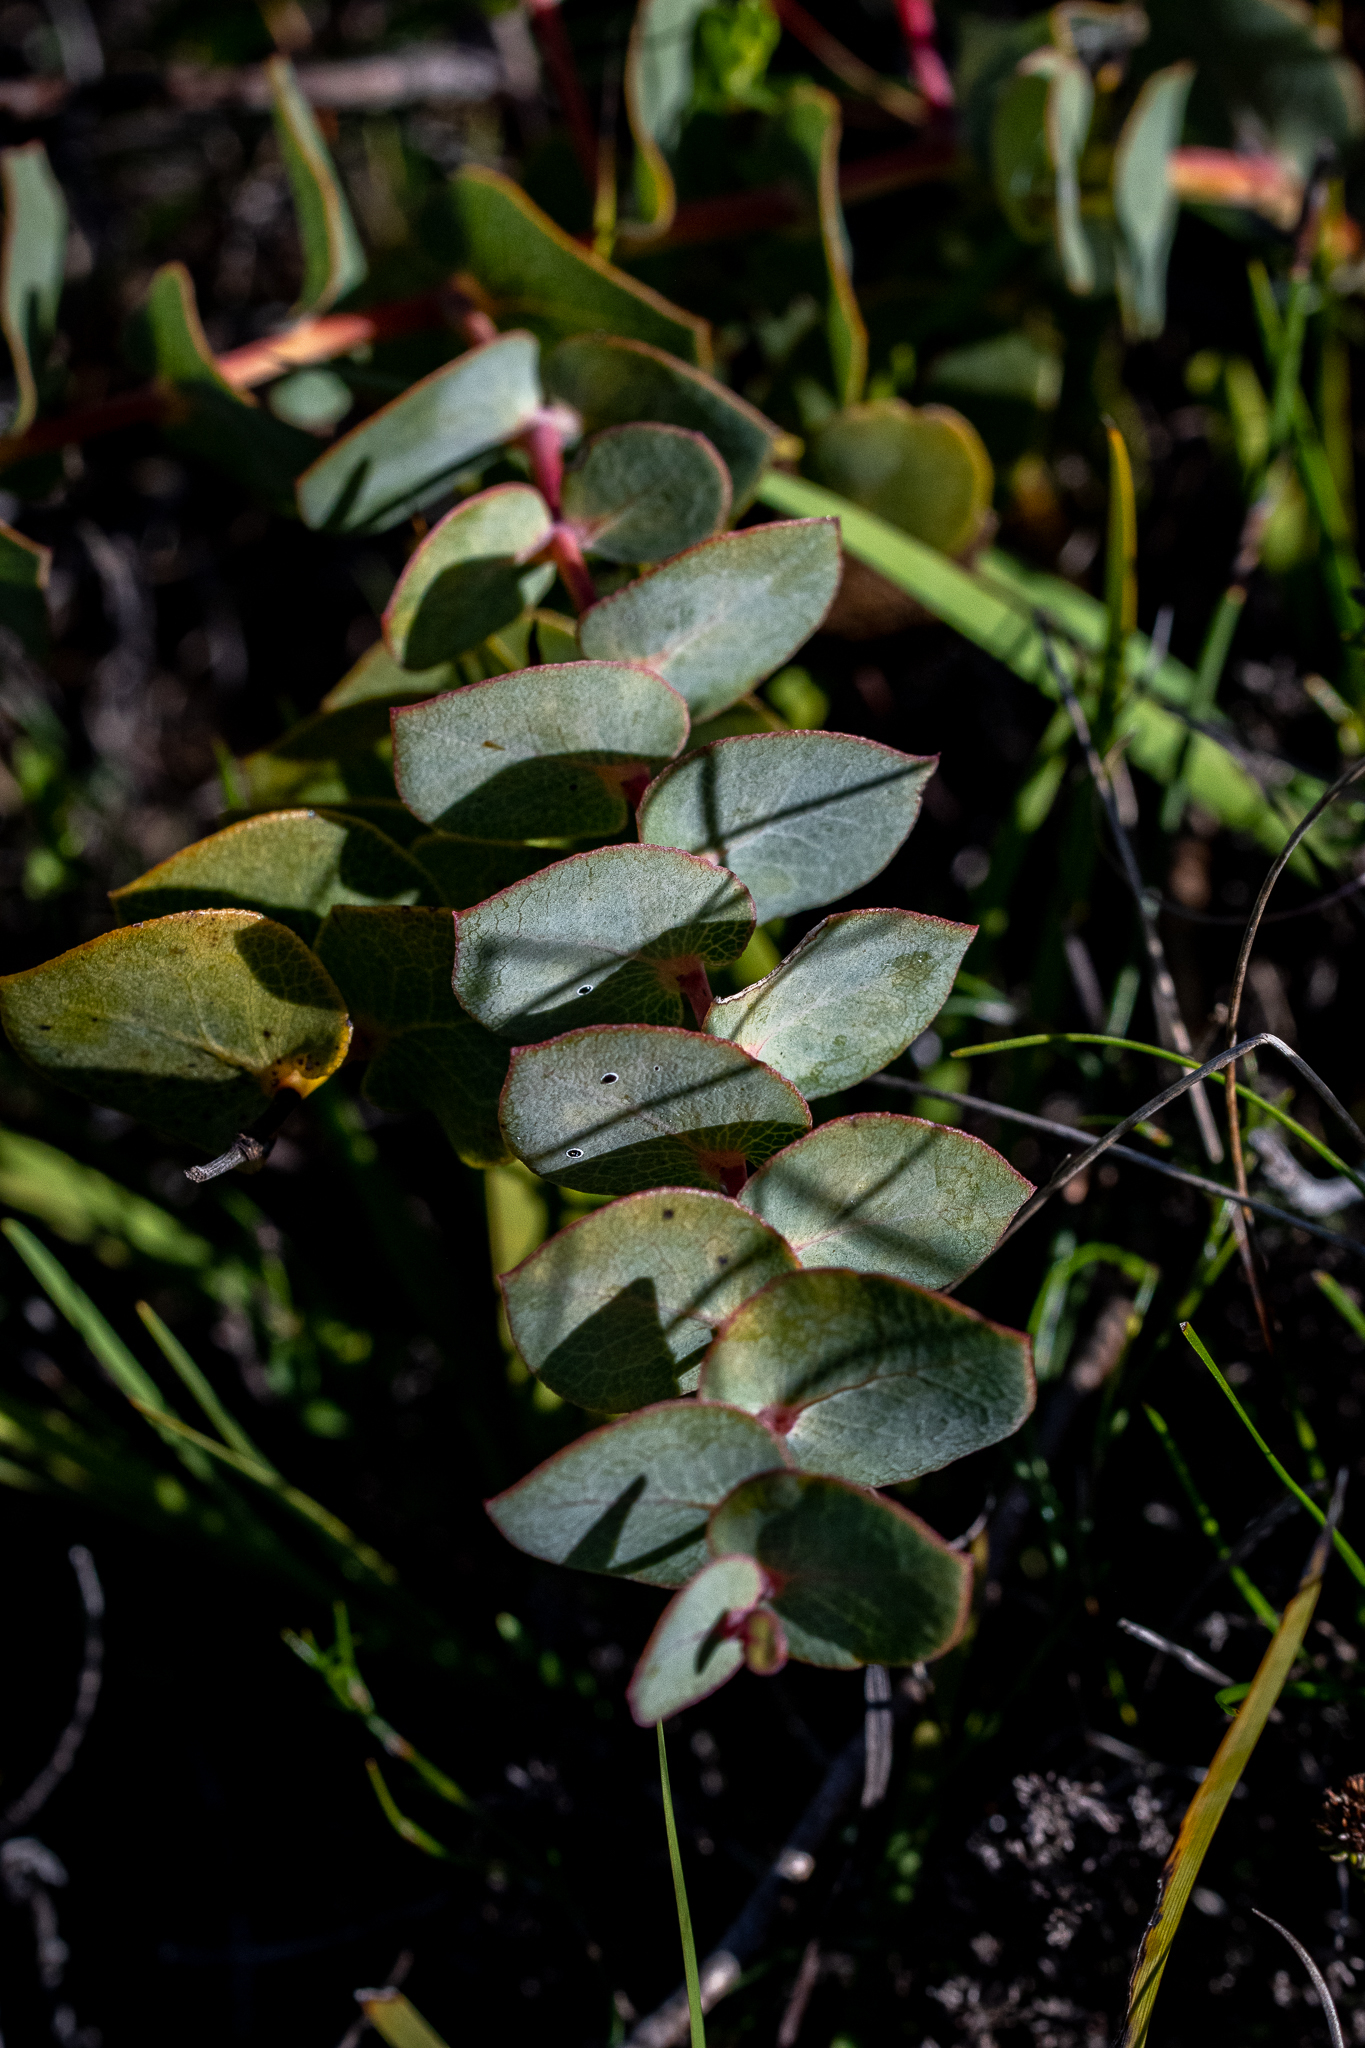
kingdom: Plantae
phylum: Tracheophyta
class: Magnoliopsida
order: Fabales
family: Fabaceae
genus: Rafnia
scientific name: Rafnia acuminata
